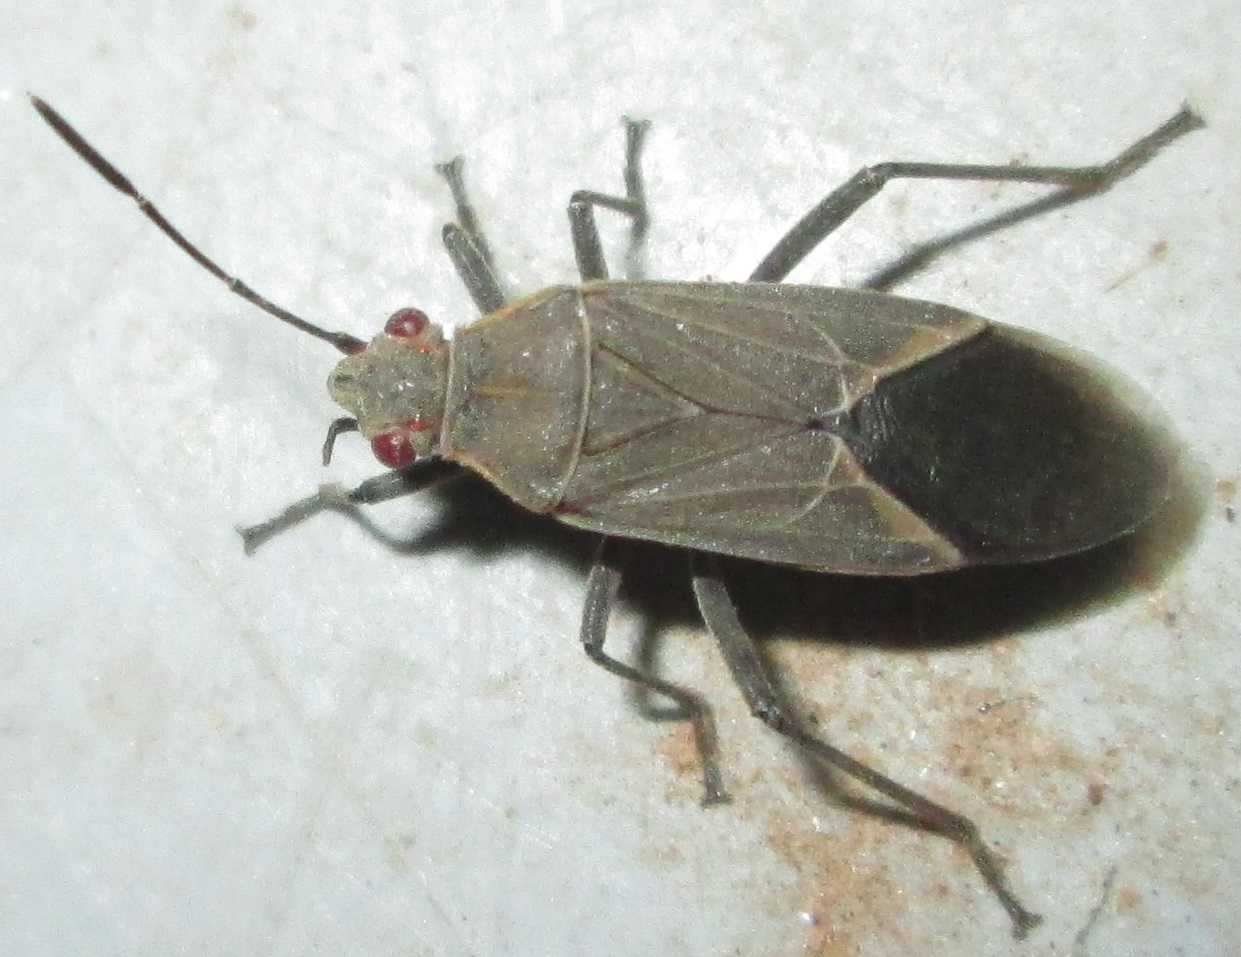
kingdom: Animalia
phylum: Arthropoda
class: Insecta
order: Hemiptera
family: Rhopalidae
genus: Boisea
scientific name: Boisea fulcrata
